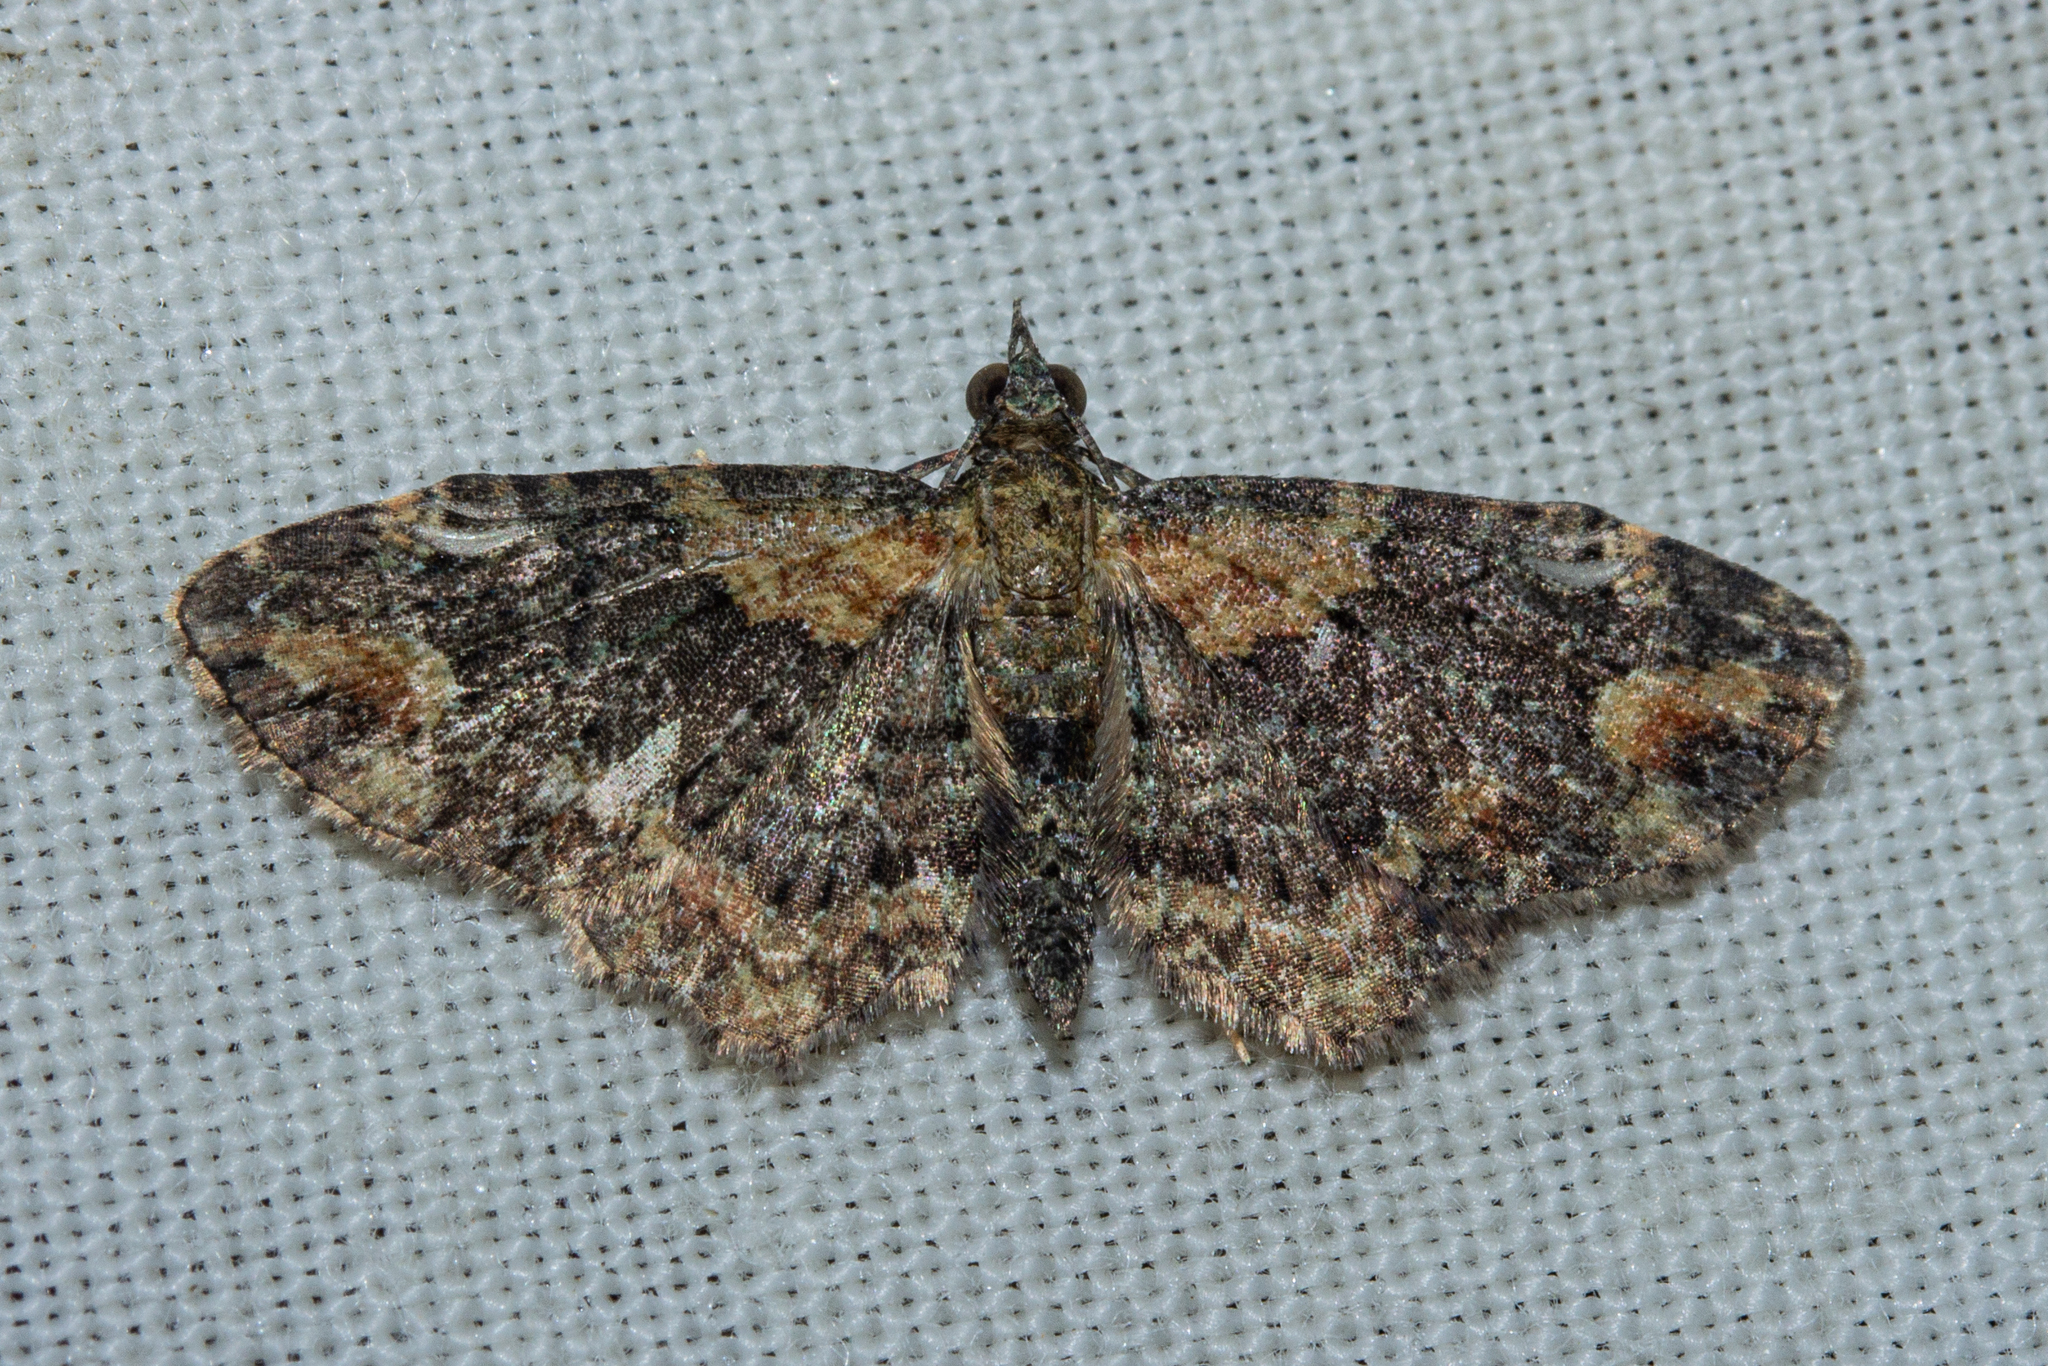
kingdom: Animalia
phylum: Arthropoda
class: Insecta
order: Lepidoptera
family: Geometridae
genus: Pasiphilodes
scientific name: Pasiphilodes testulata
